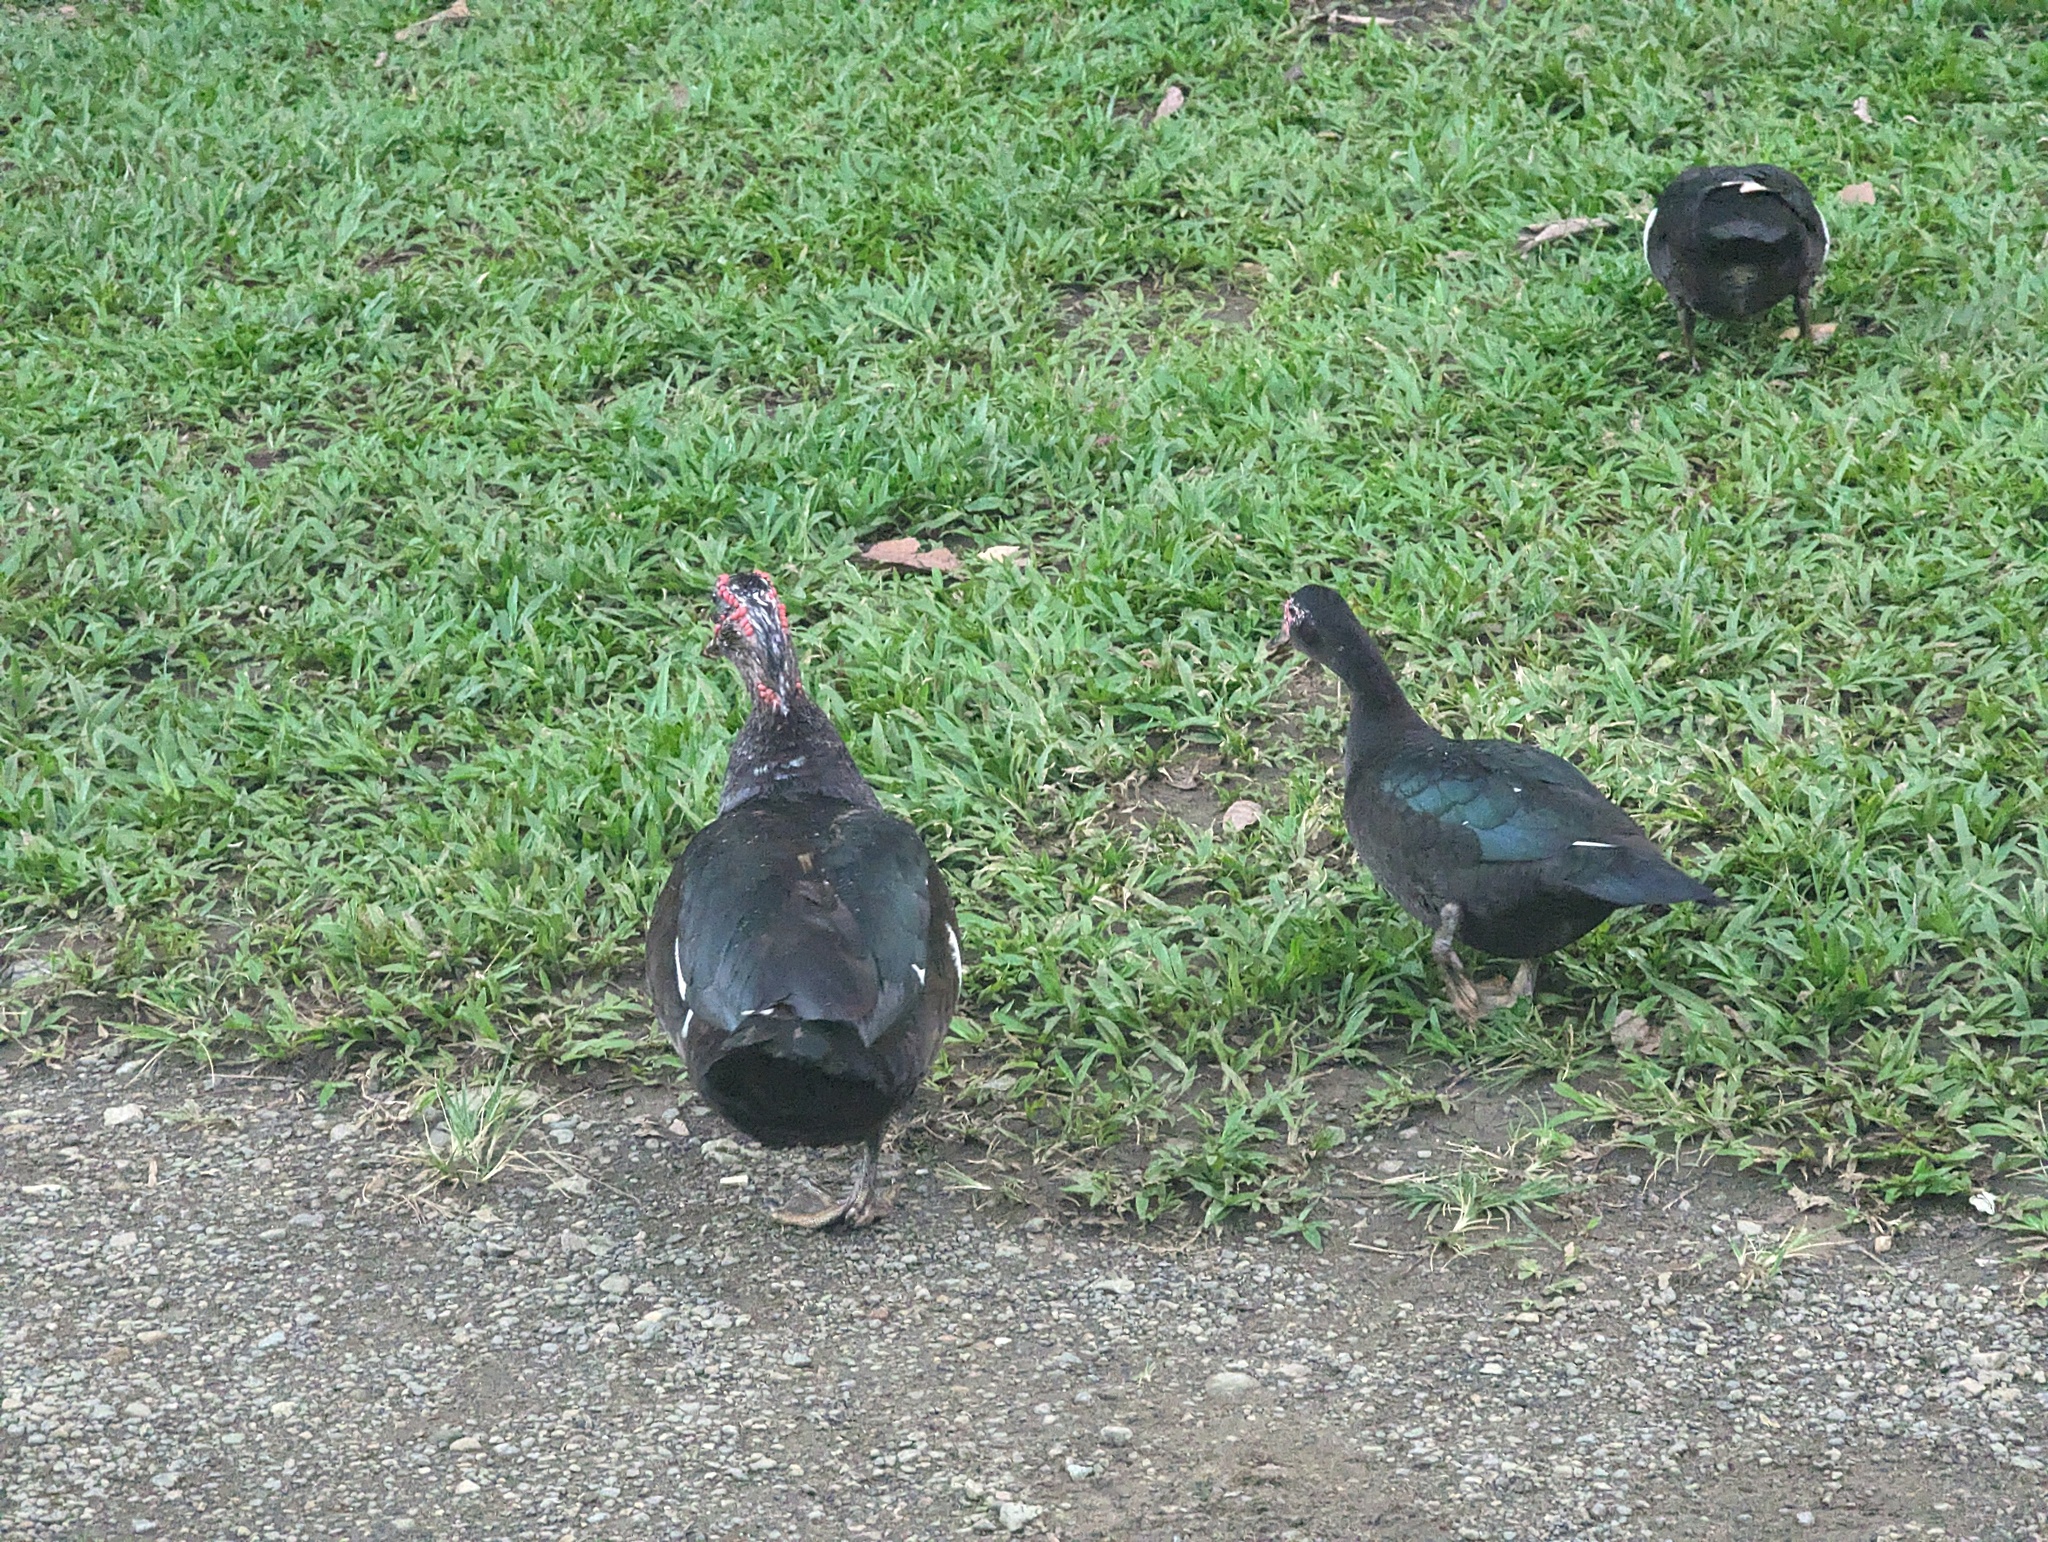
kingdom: Animalia
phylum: Chordata
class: Aves
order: Anseriformes
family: Anatidae
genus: Cairina
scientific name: Cairina moschata
